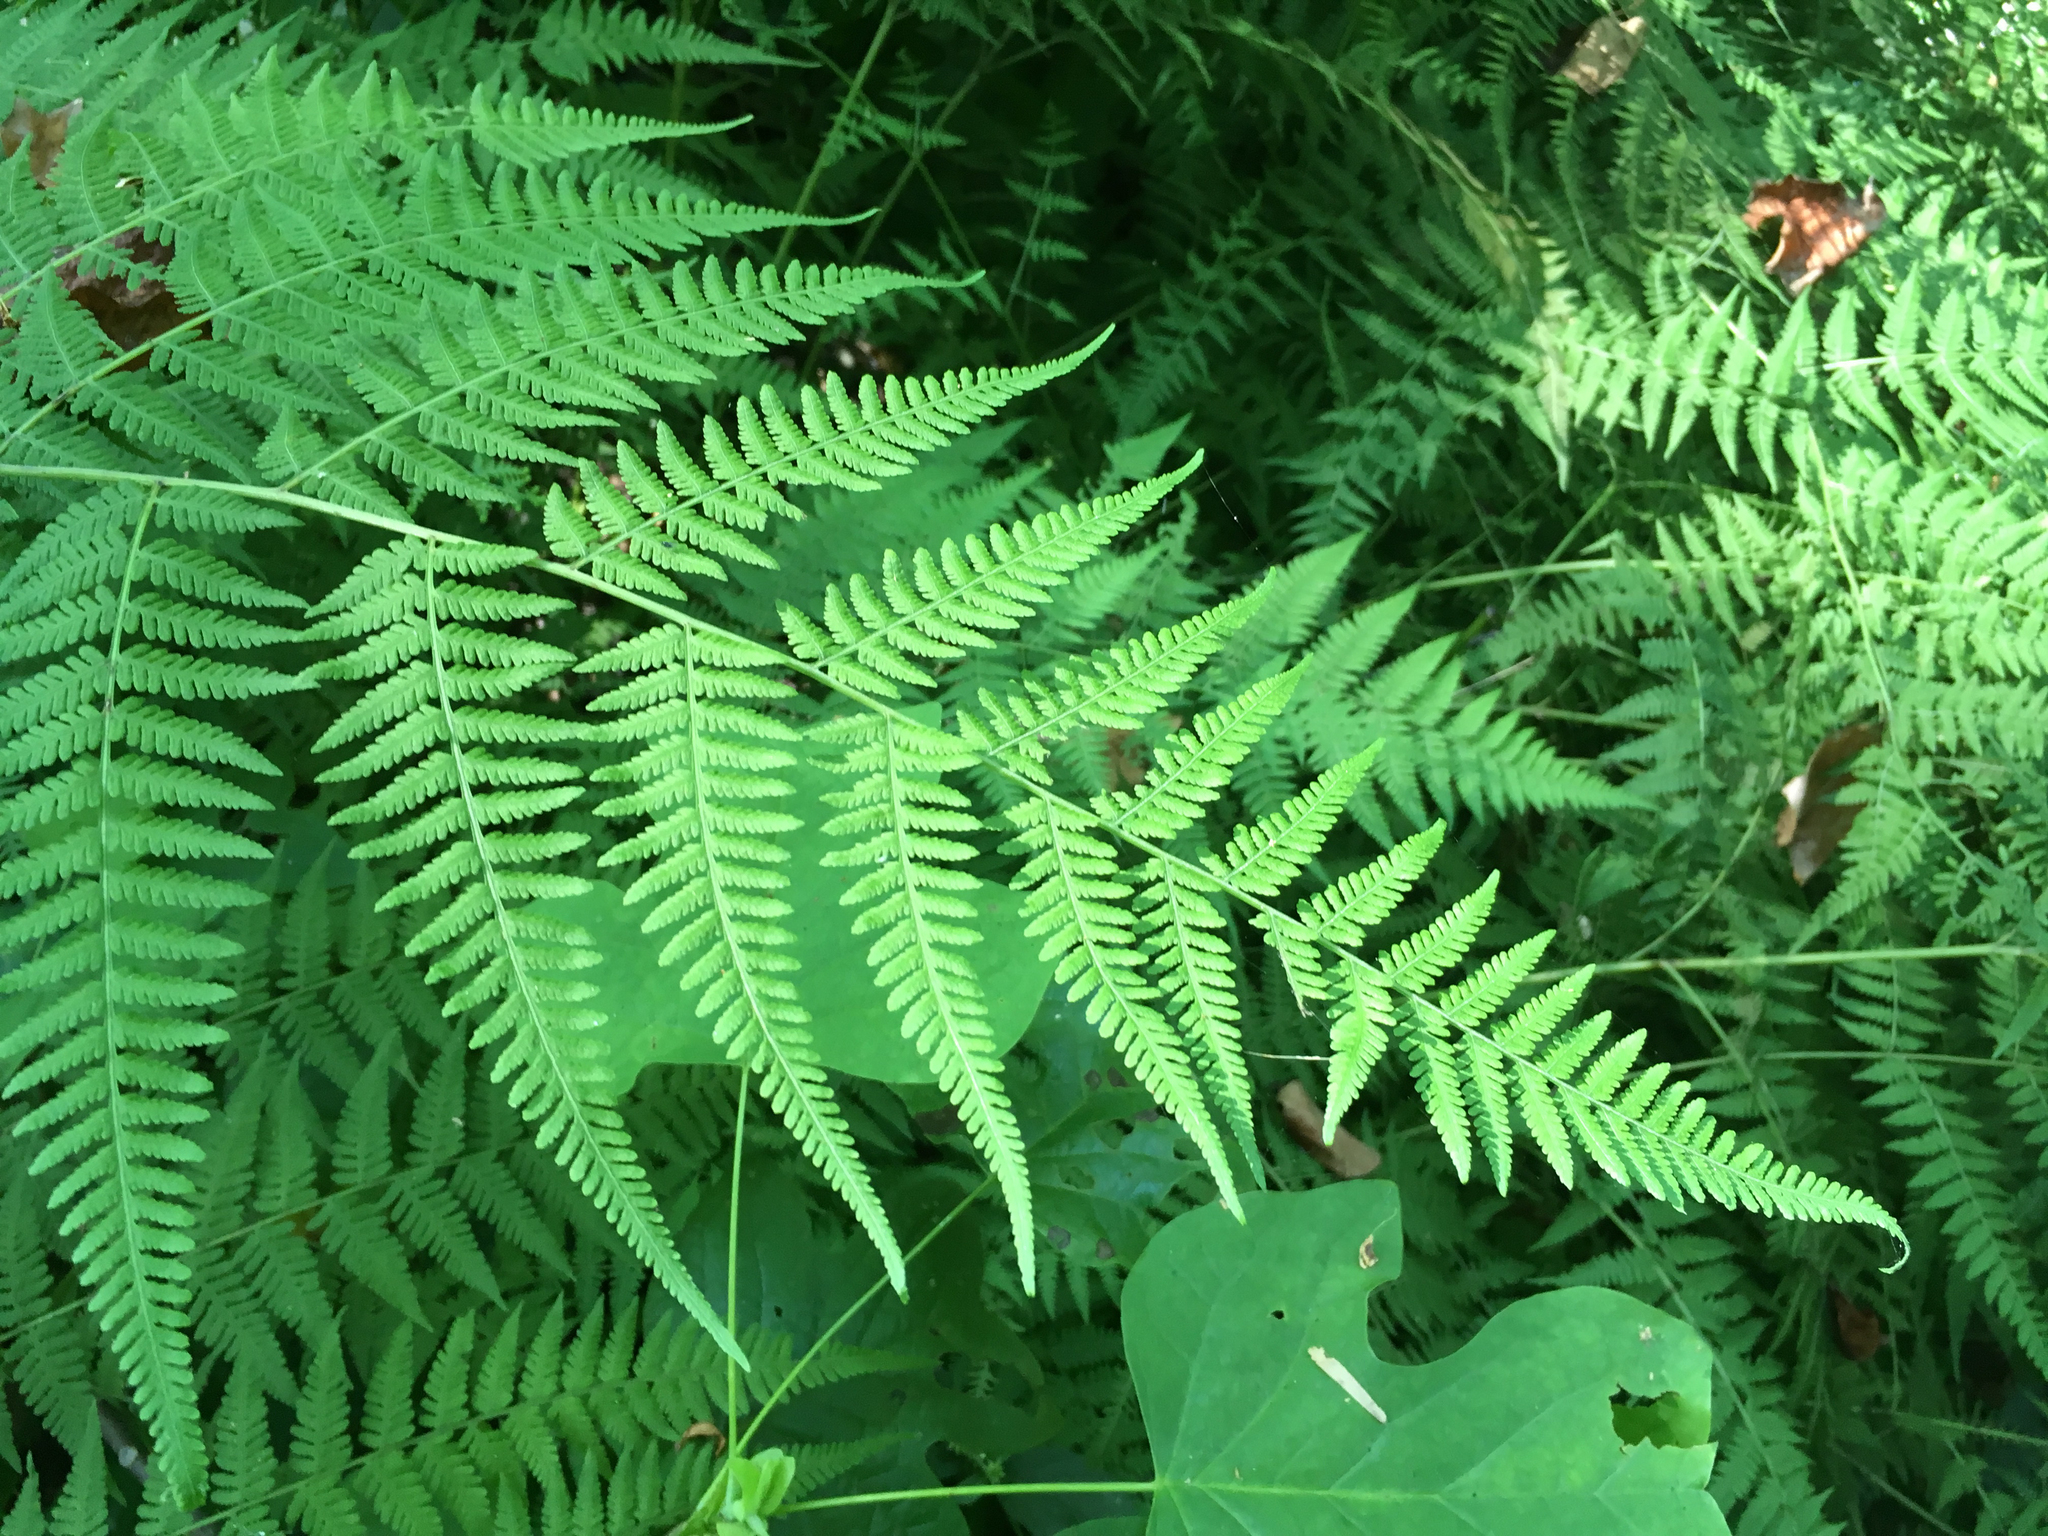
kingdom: Plantae
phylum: Tracheophyta
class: Polypodiopsida
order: Polypodiales
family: Thelypteridaceae
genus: Macrothelypteris
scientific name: Macrothelypteris torresiana
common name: Swordfern
